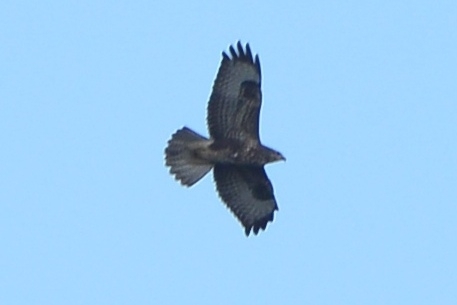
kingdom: Animalia
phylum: Chordata
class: Aves
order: Accipitriformes
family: Accipitridae
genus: Buteo
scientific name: Buteo buteo
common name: Common buzzard
